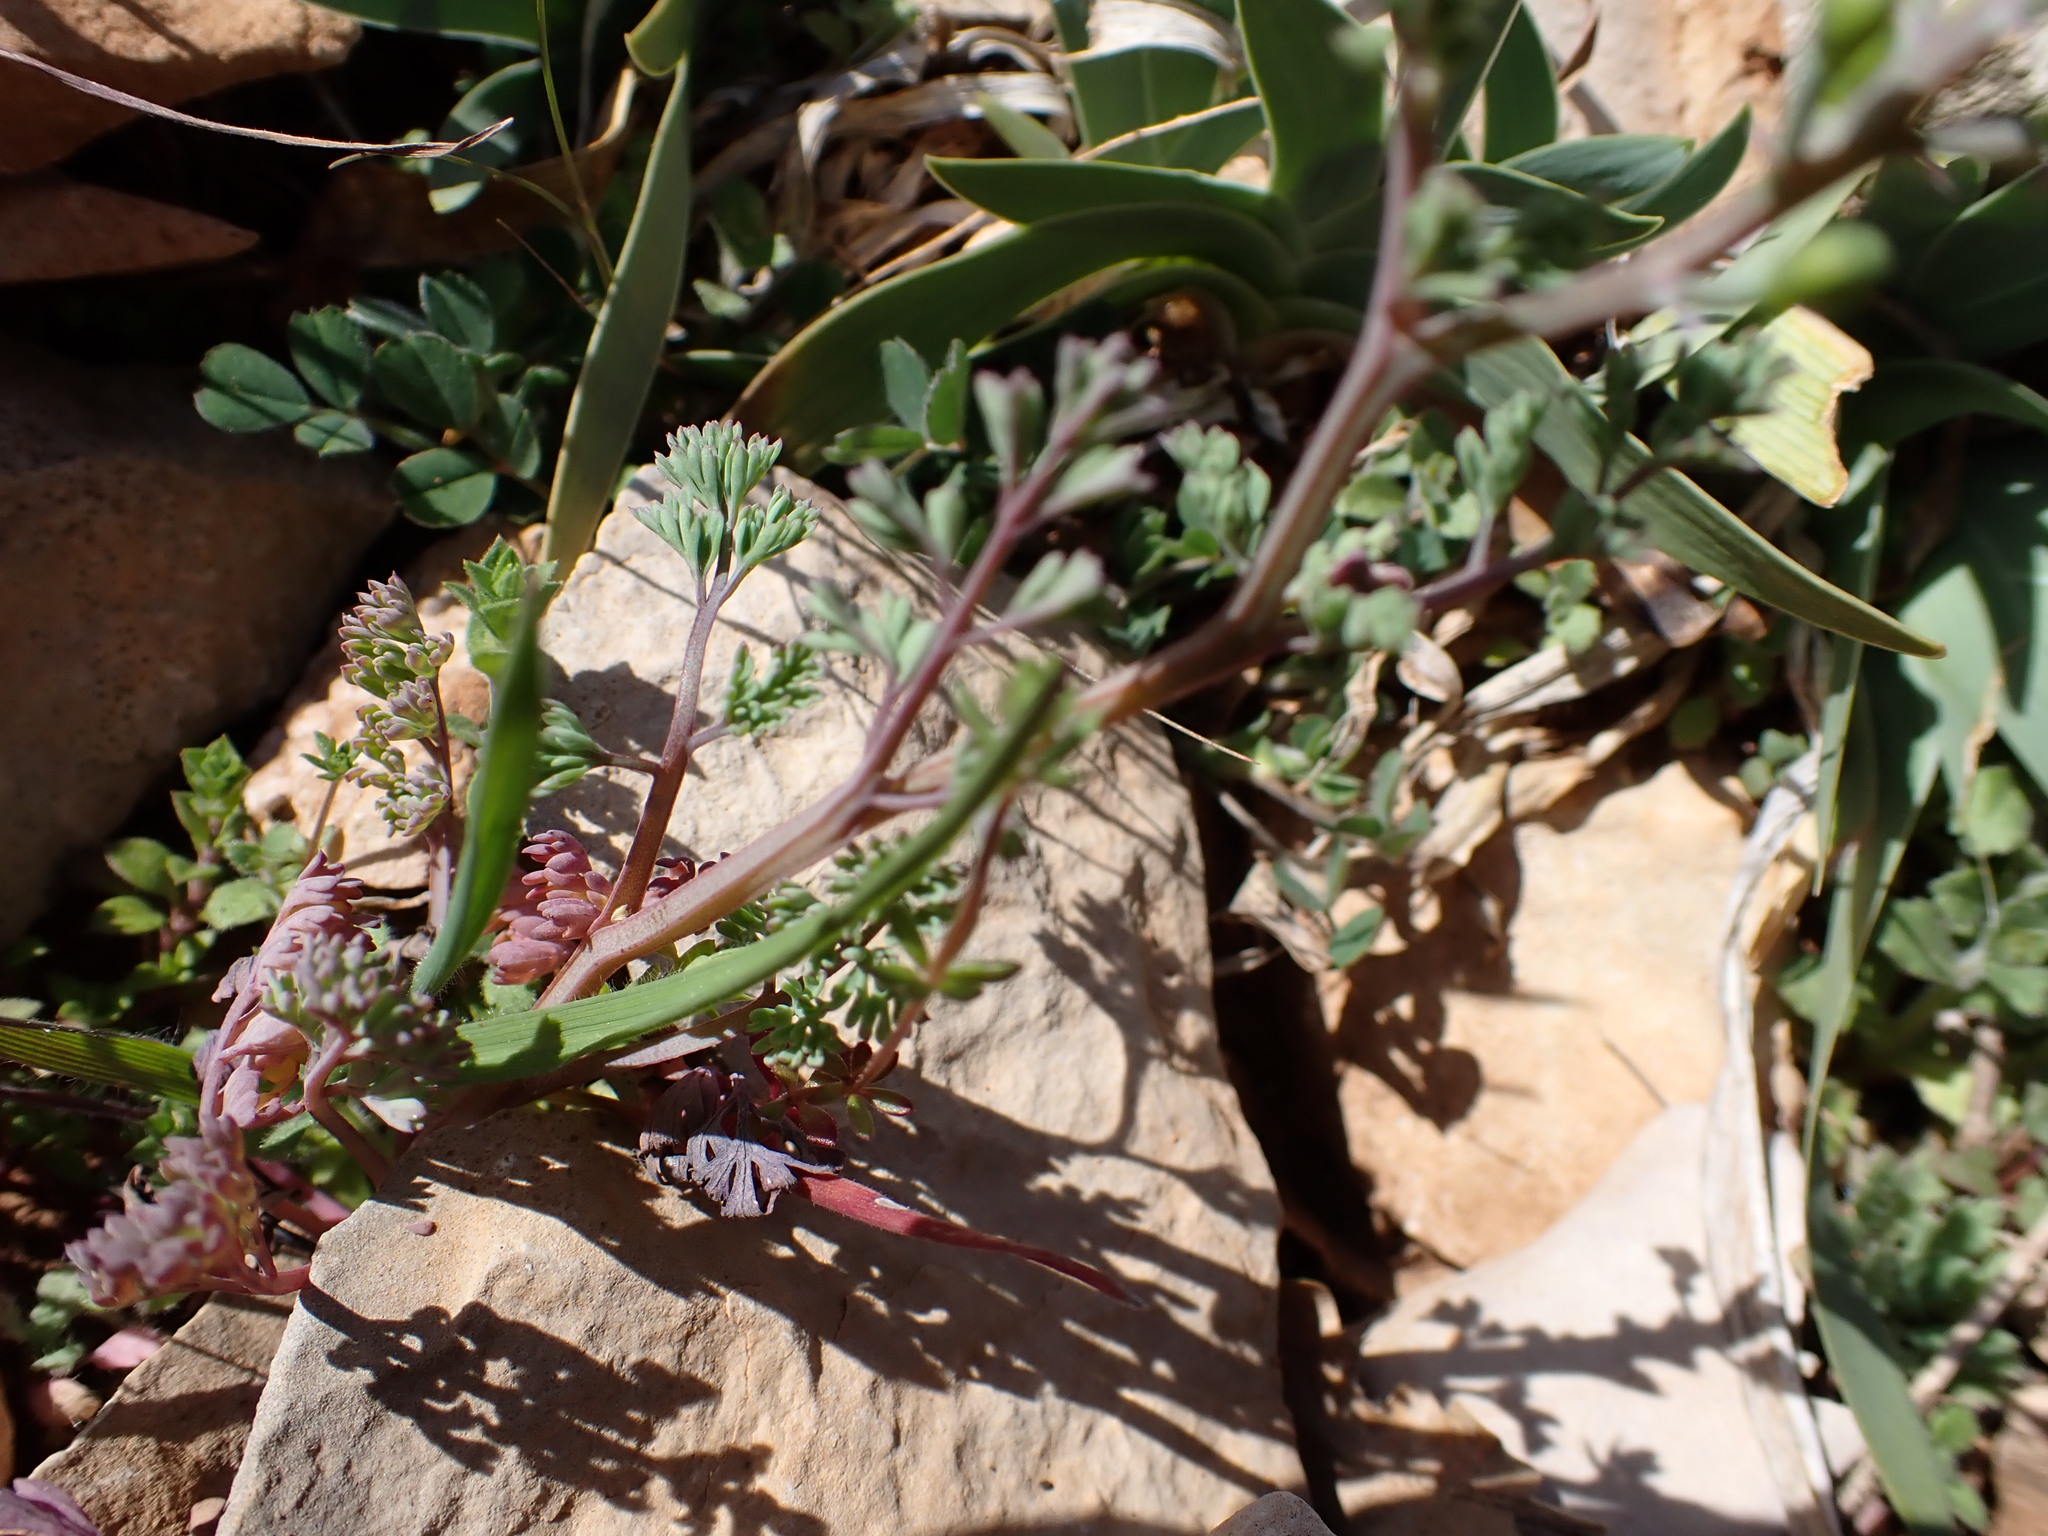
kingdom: Plantae
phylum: Tracheophyta
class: Magnoliopsida
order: Ranunculales
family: Papaveraceae
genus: Fumaria
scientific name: Fumaria wirtgenii
